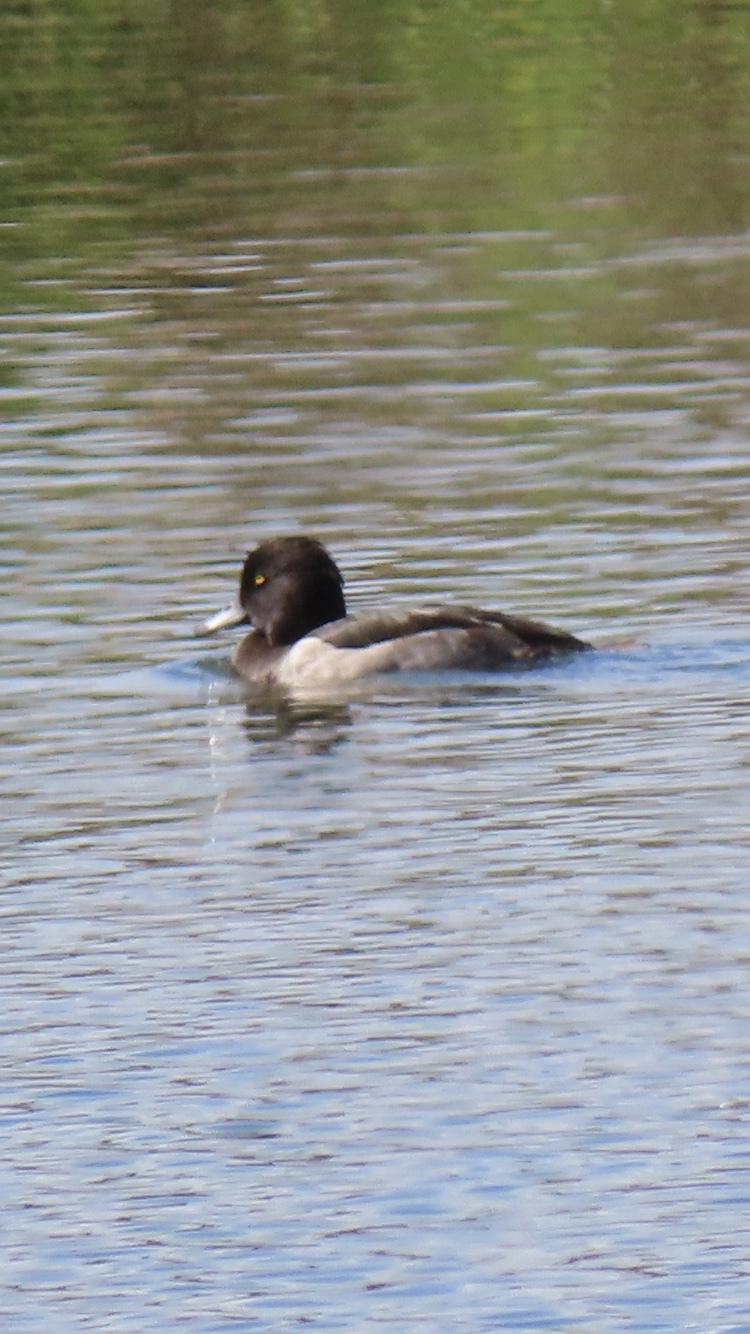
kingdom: Animalia
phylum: Chordata
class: Aves
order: Anseriformes
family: Anatidae
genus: Aythya
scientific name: Aythya fuligula
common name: Tufted duck
